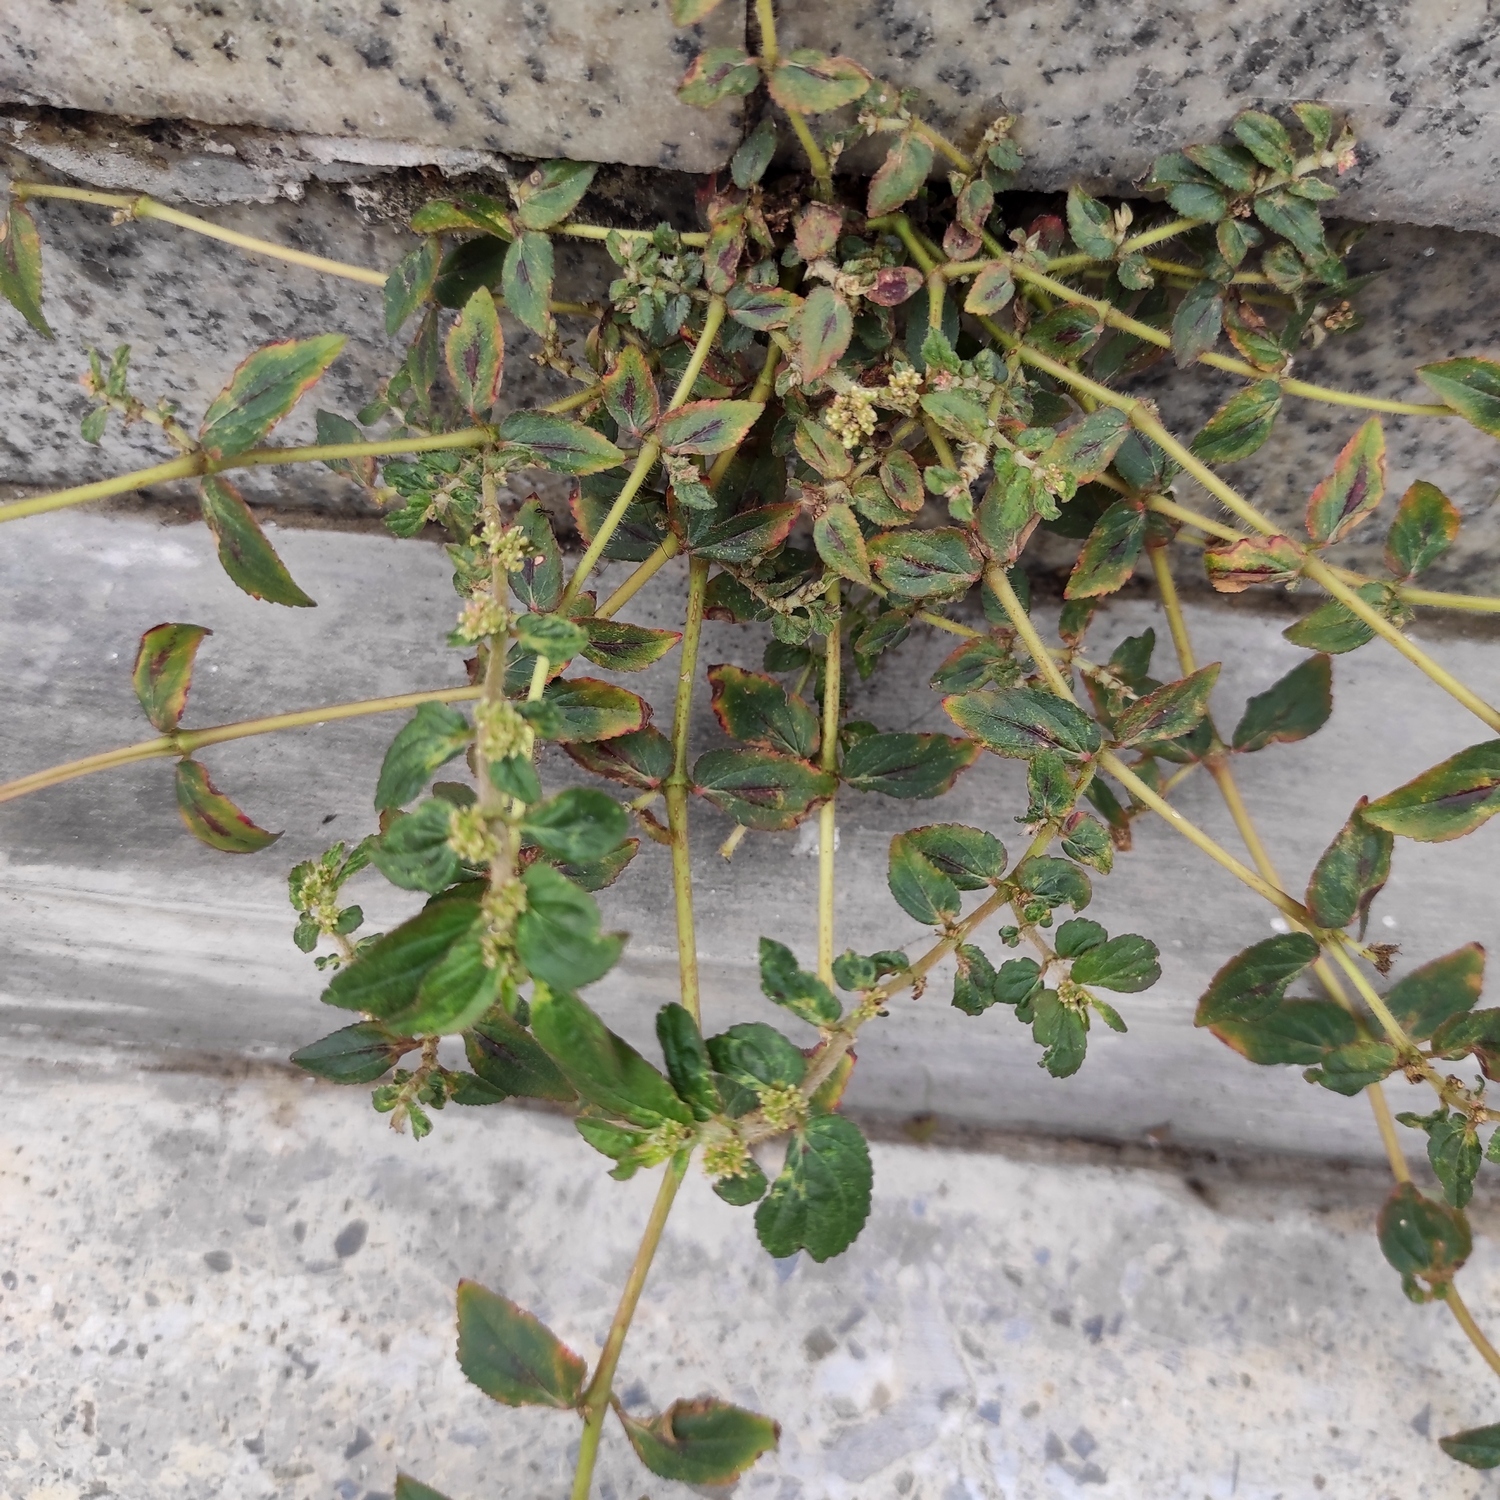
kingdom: Plantae
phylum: Tracheophyta
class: Magnoliopsida
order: Malpighiales
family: Euphorbiaceae
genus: Euphorbia
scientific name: Euphorbia hirta
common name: Pillpod sandmat
